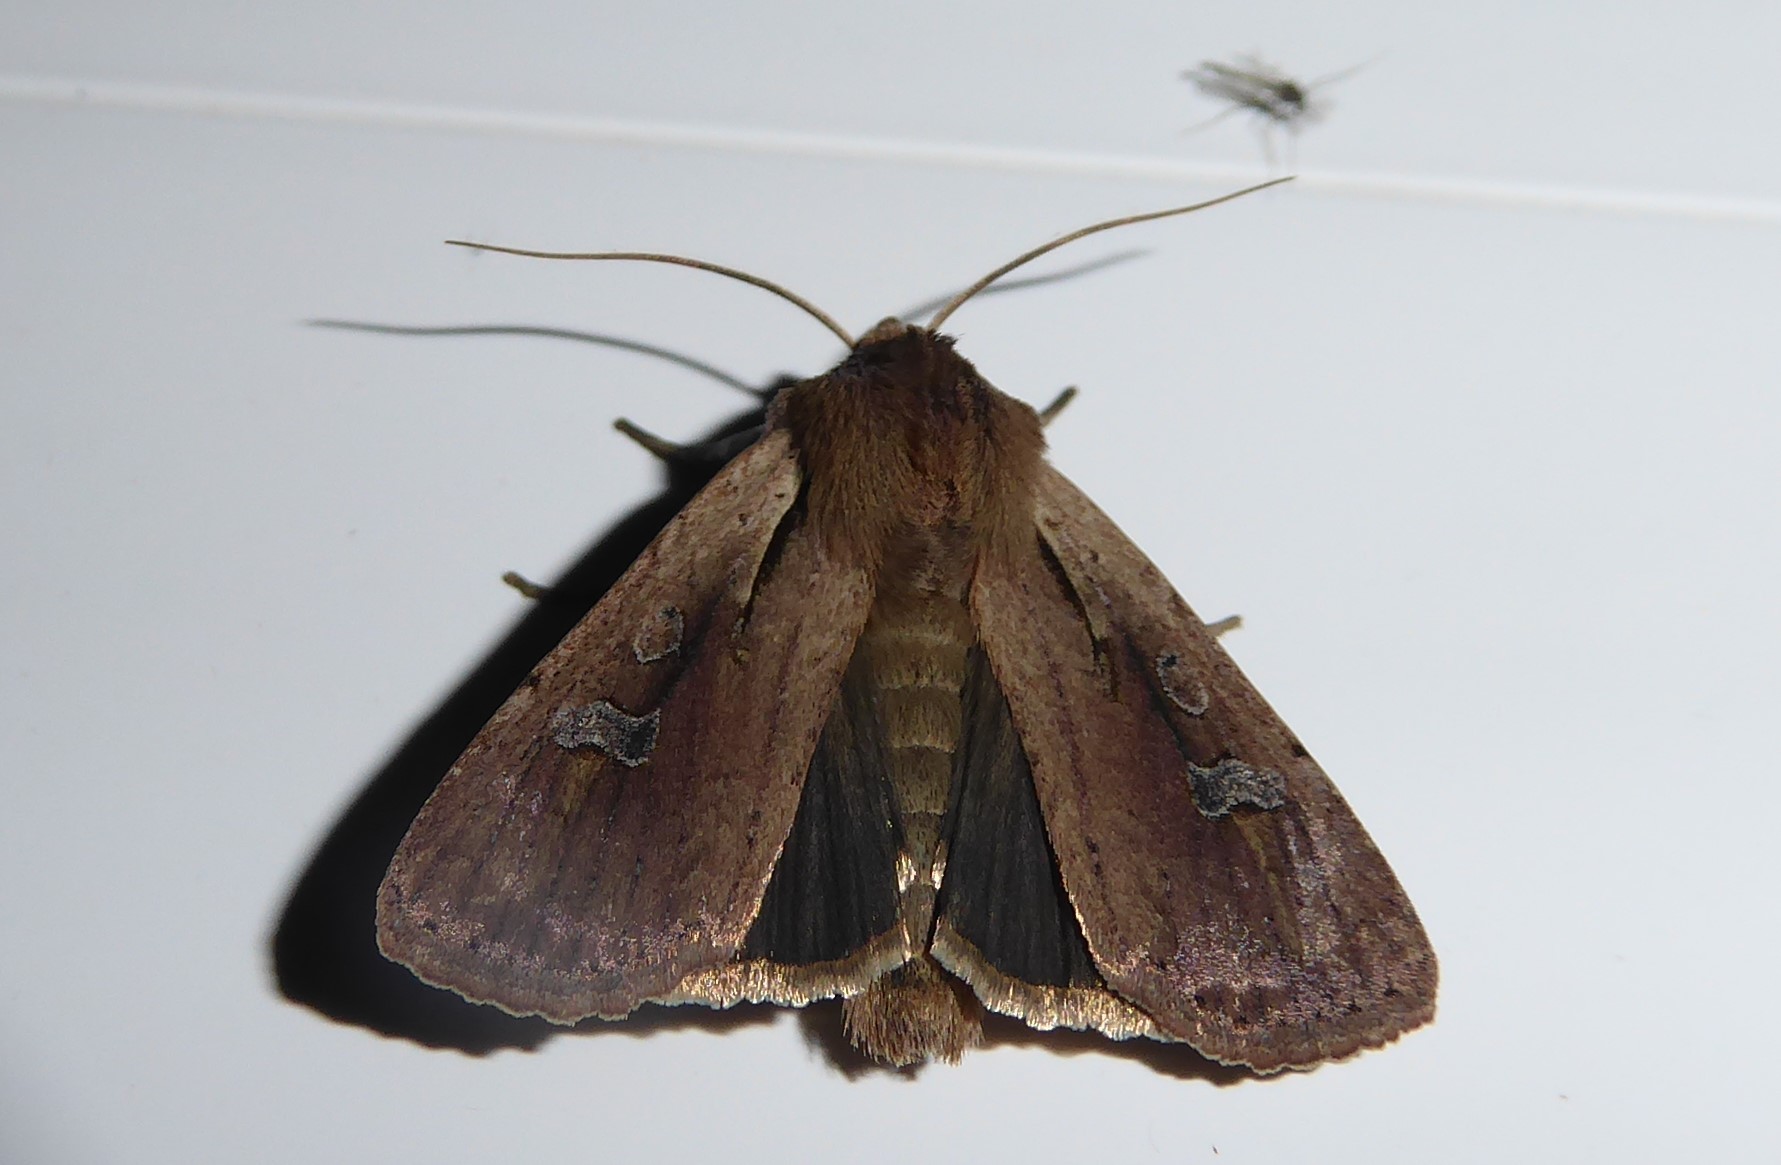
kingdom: Animalia
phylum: Arthropoda
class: Insecta
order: Lepidoptera
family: Noctuidae
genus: Ichneutica
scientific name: Ichneutica atristriga
